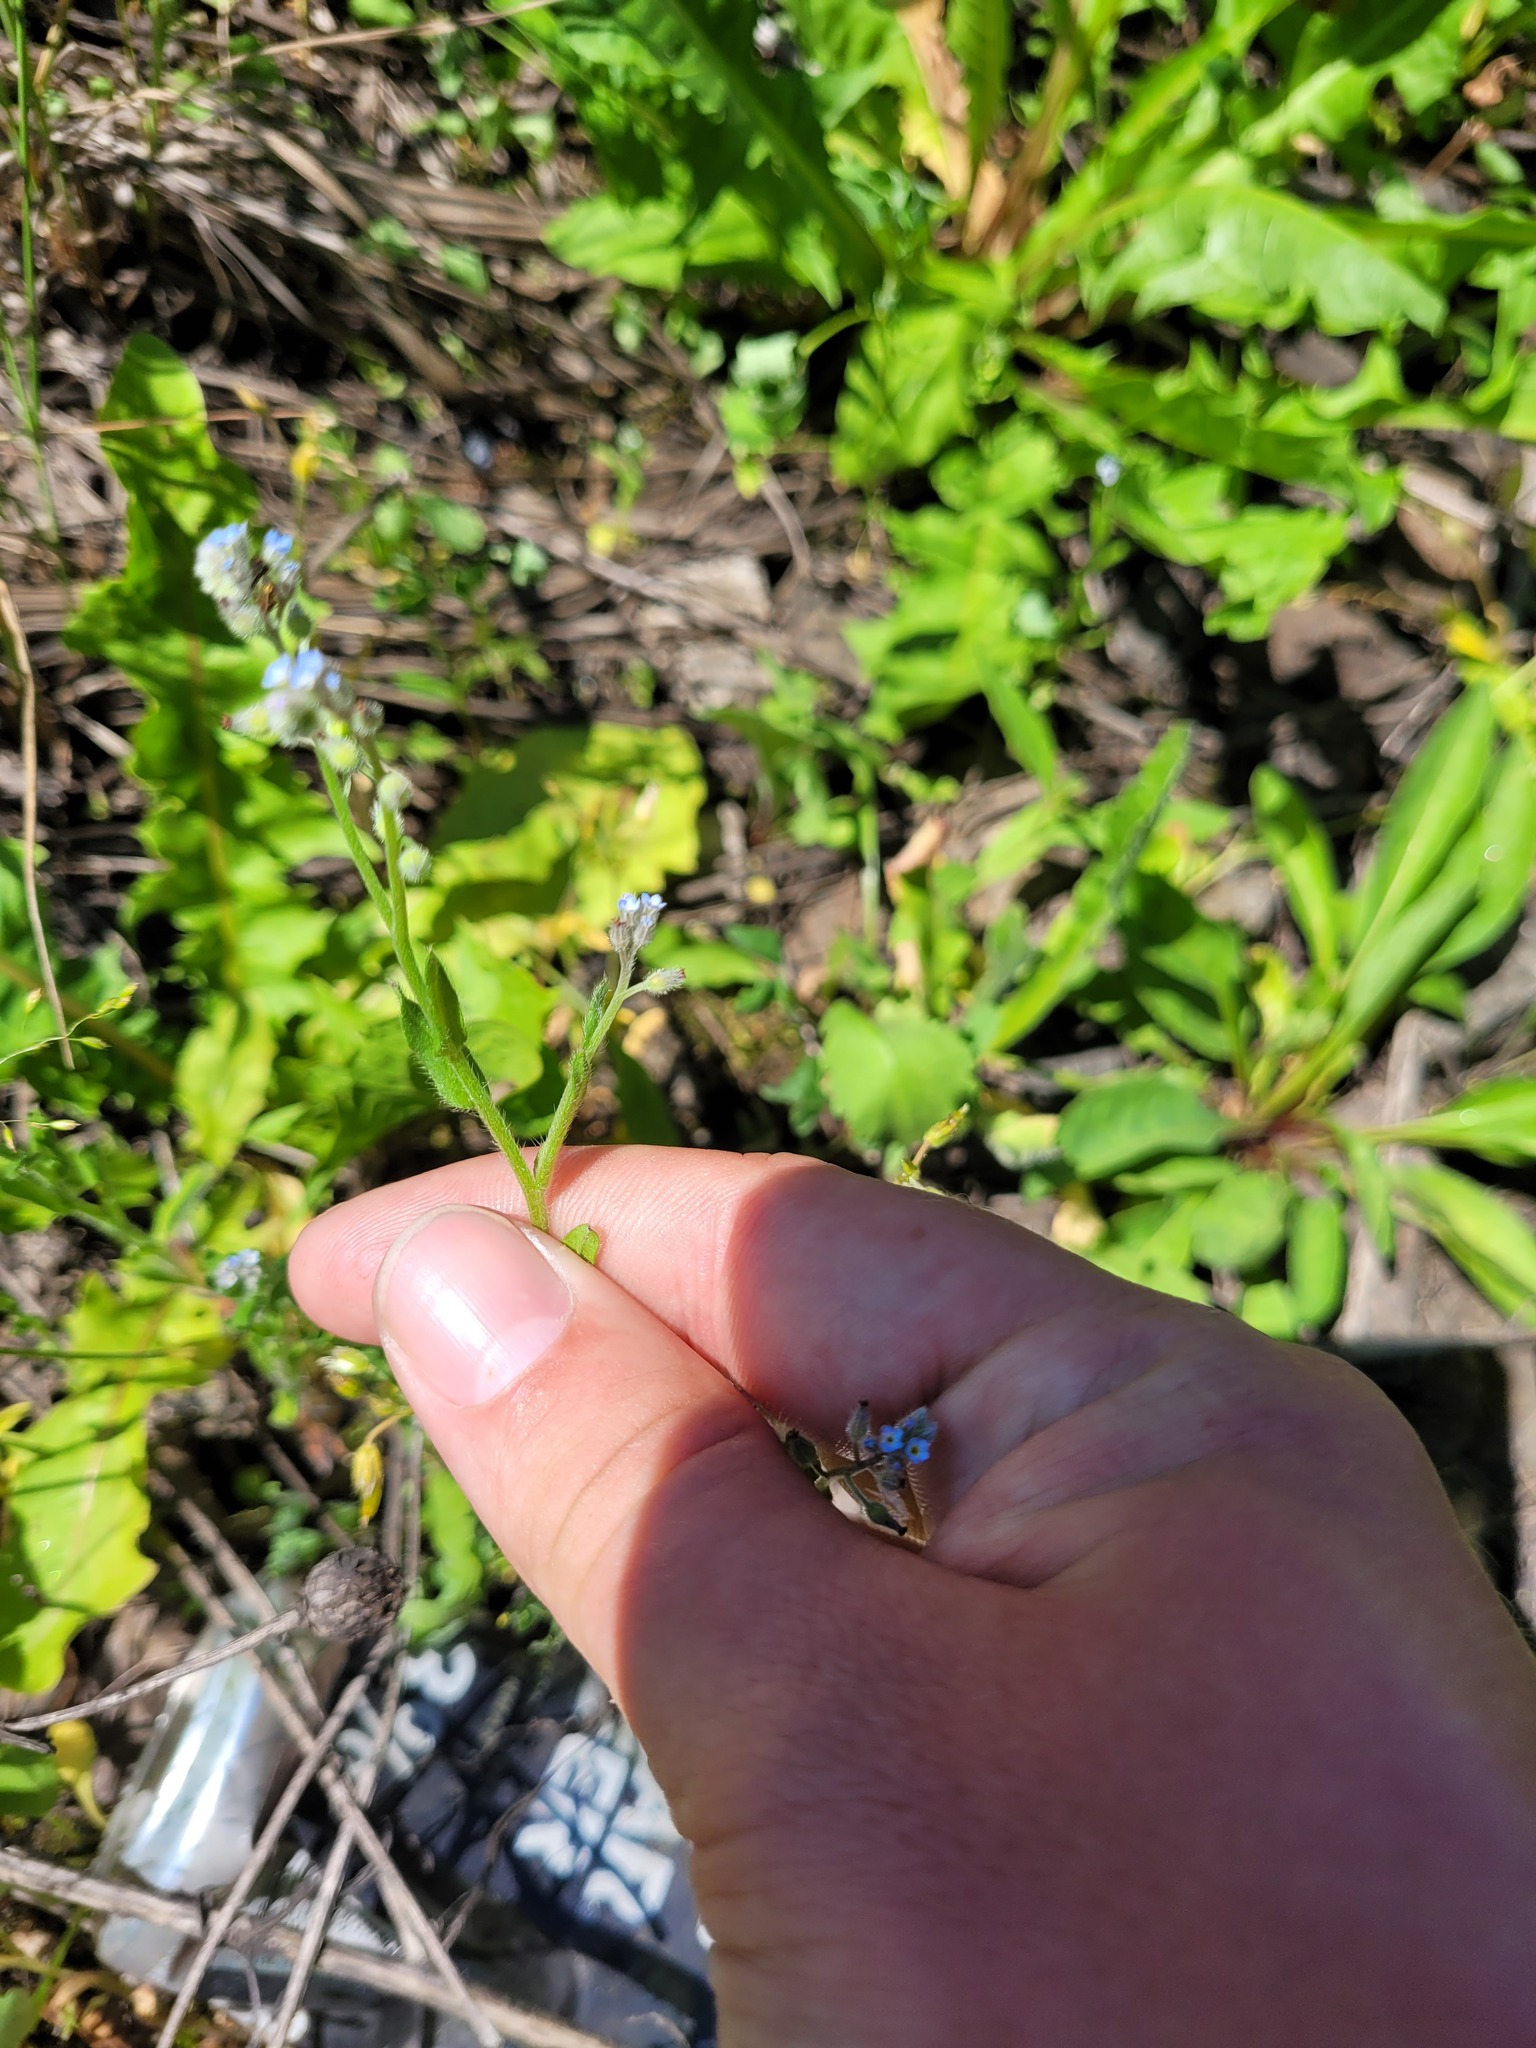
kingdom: Plantae
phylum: Tracheophyta
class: Magnoliopsida
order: Boraginales
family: Boraginaceae
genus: Myosotis
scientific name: Myosotis arvensis
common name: Field forget-me-not
